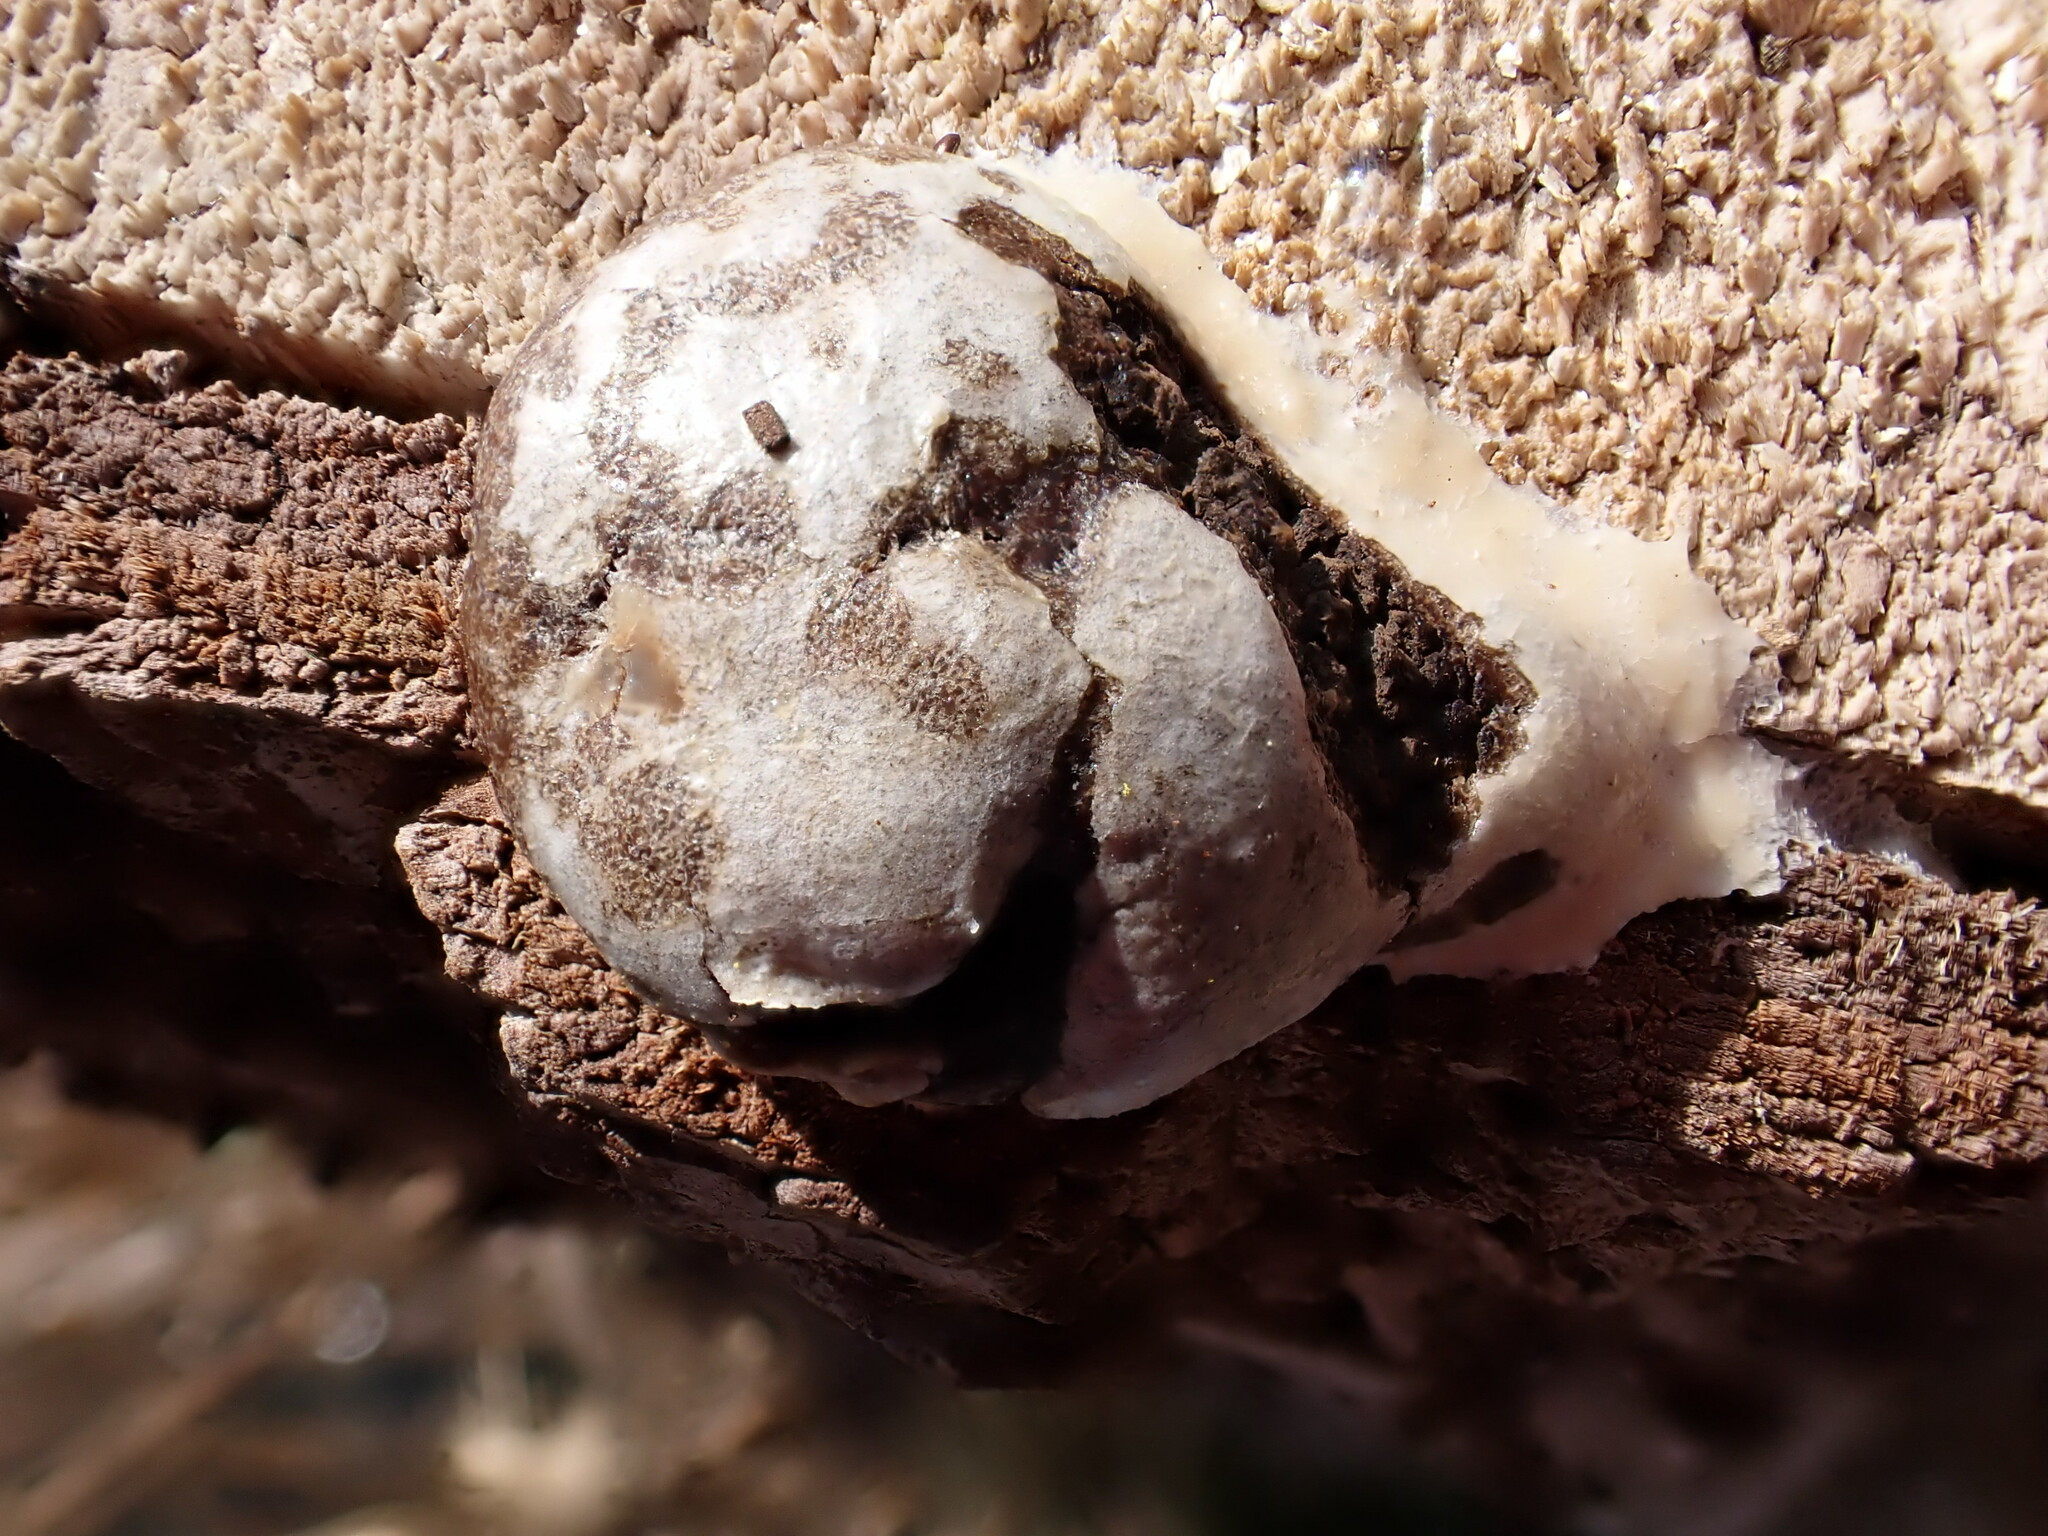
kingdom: Protozoa
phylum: Mycetozoa
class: Myxomycetes
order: Cribrariales
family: Tubiferaceae
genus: Reticularia
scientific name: Reticularia lycoperdon
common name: False puffball
